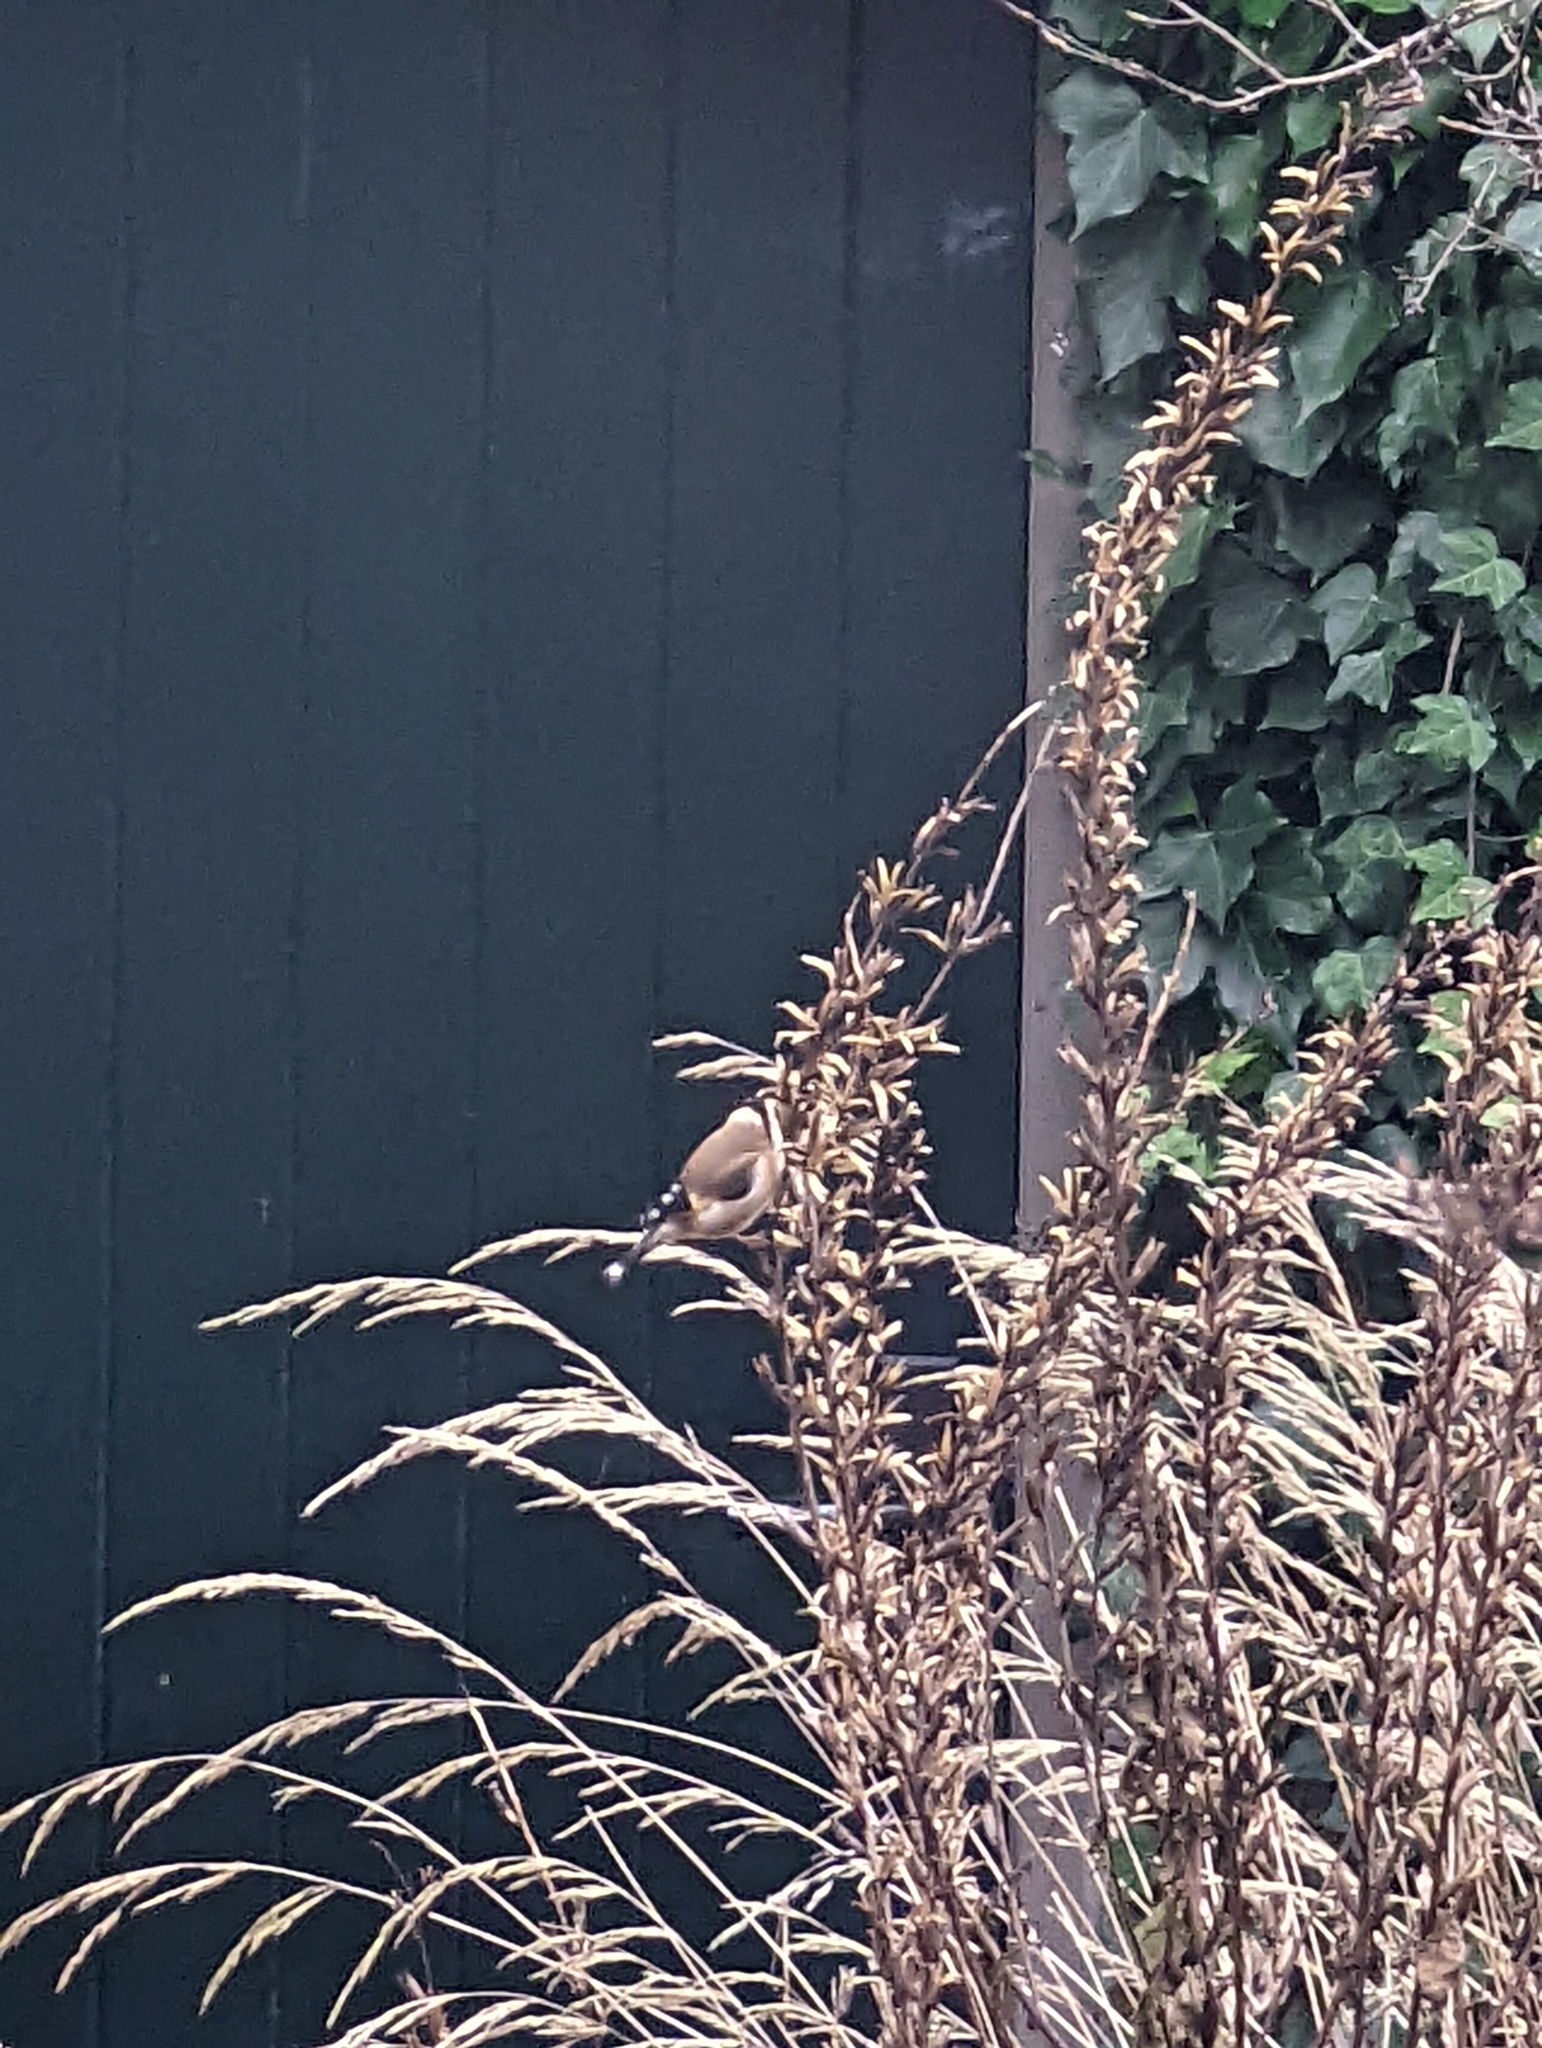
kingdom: Animalia
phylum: Chordata
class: Aves
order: Passeriformes
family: Fringillidae
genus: Carduelis
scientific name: Carduelis carduelis
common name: European goldfinch
